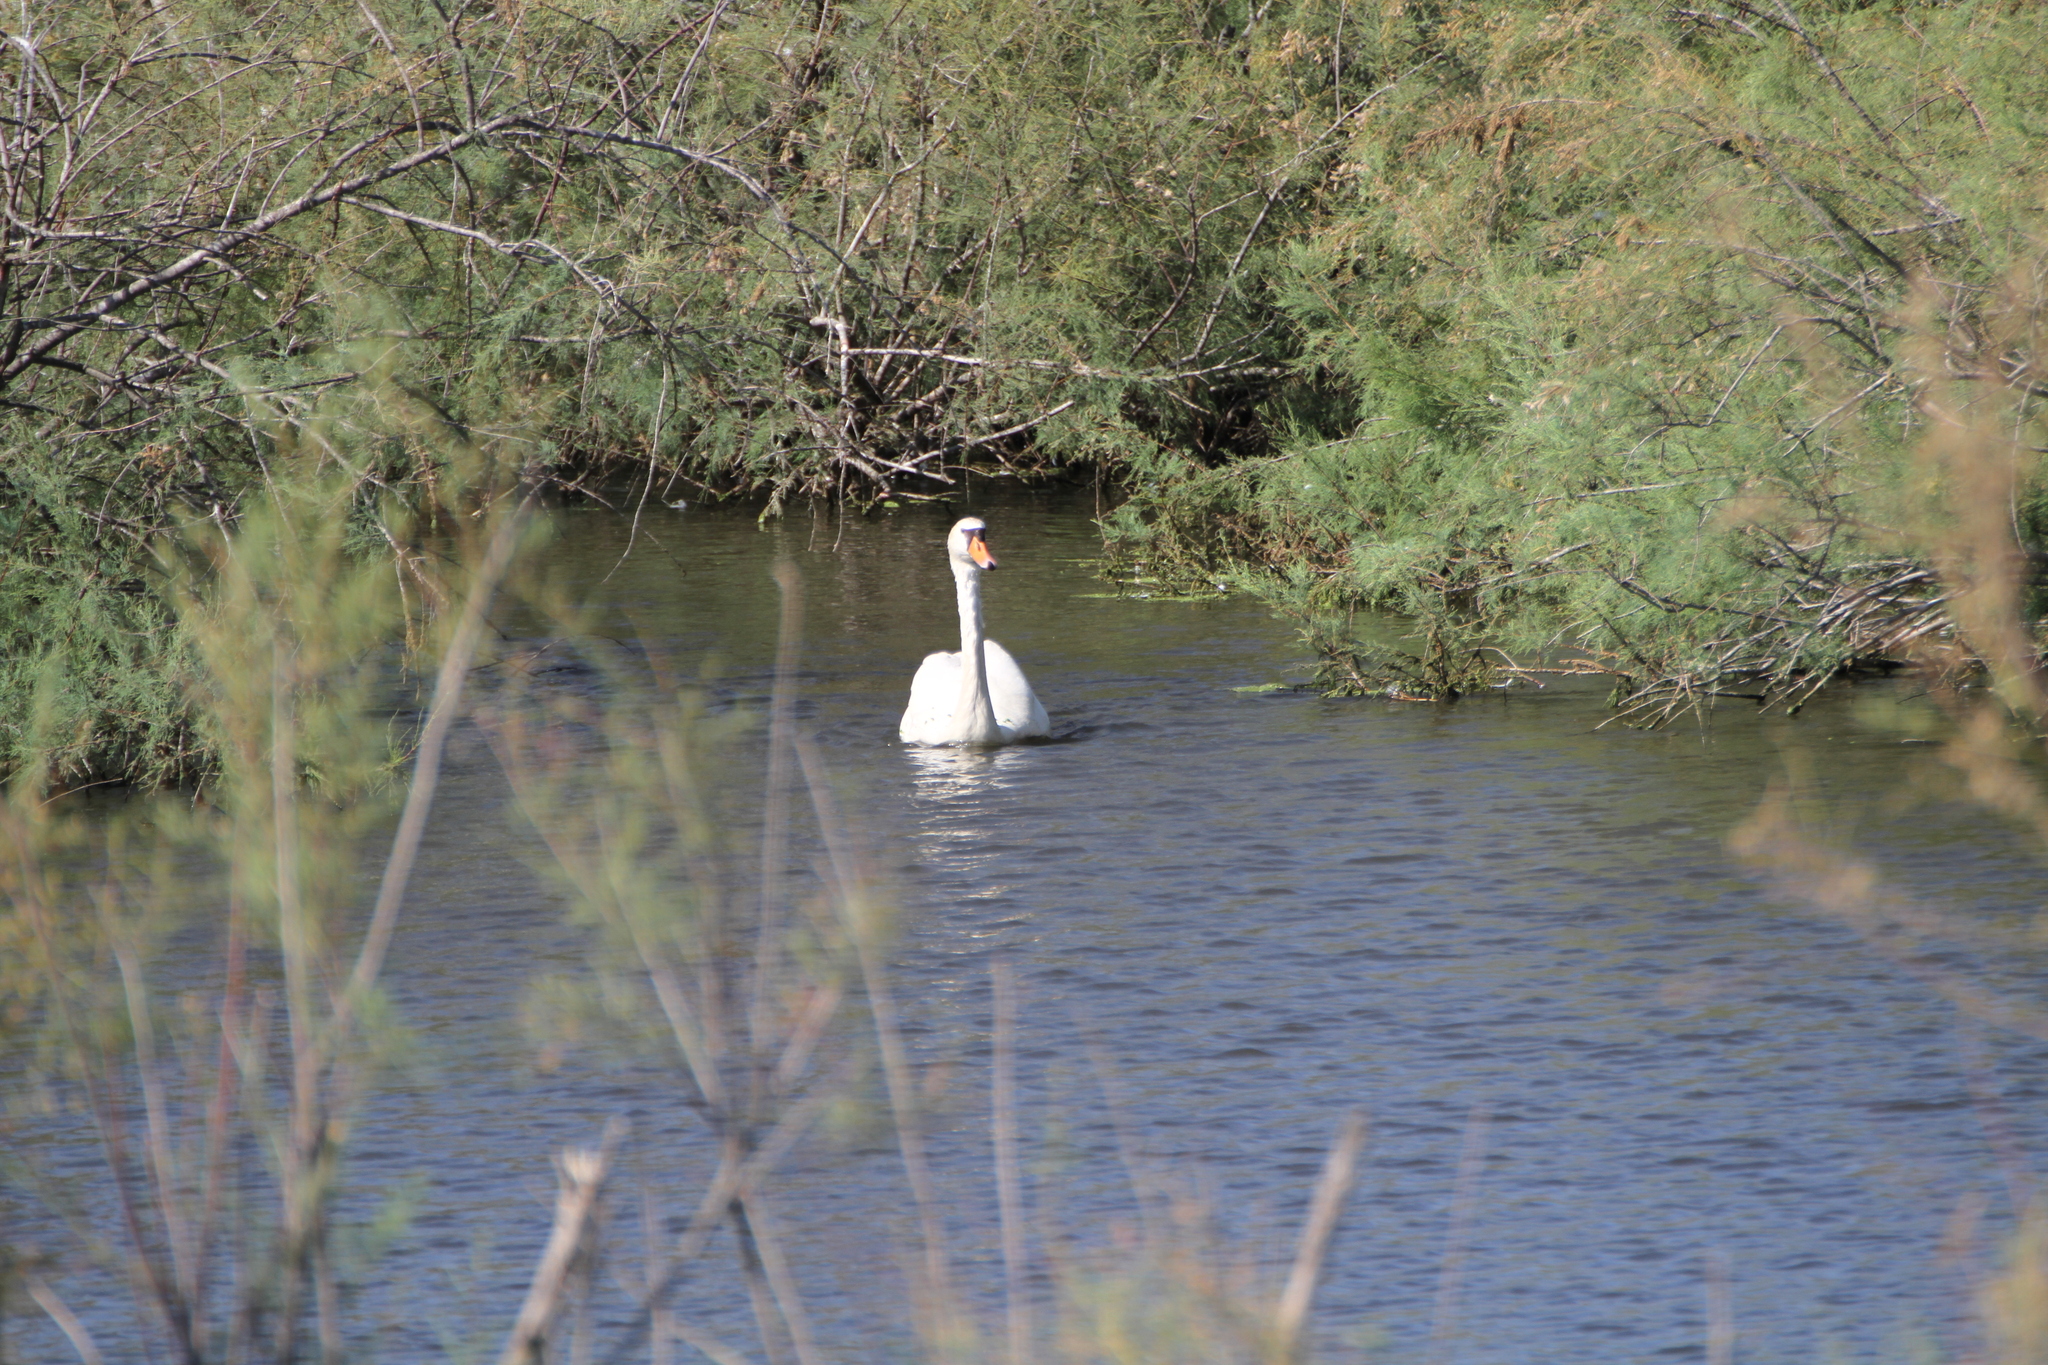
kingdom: Animalia
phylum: Chordata
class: Aves
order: Anseriformes
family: Anatidae
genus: Cygnus
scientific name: Cygnus olor
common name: Mute swan
